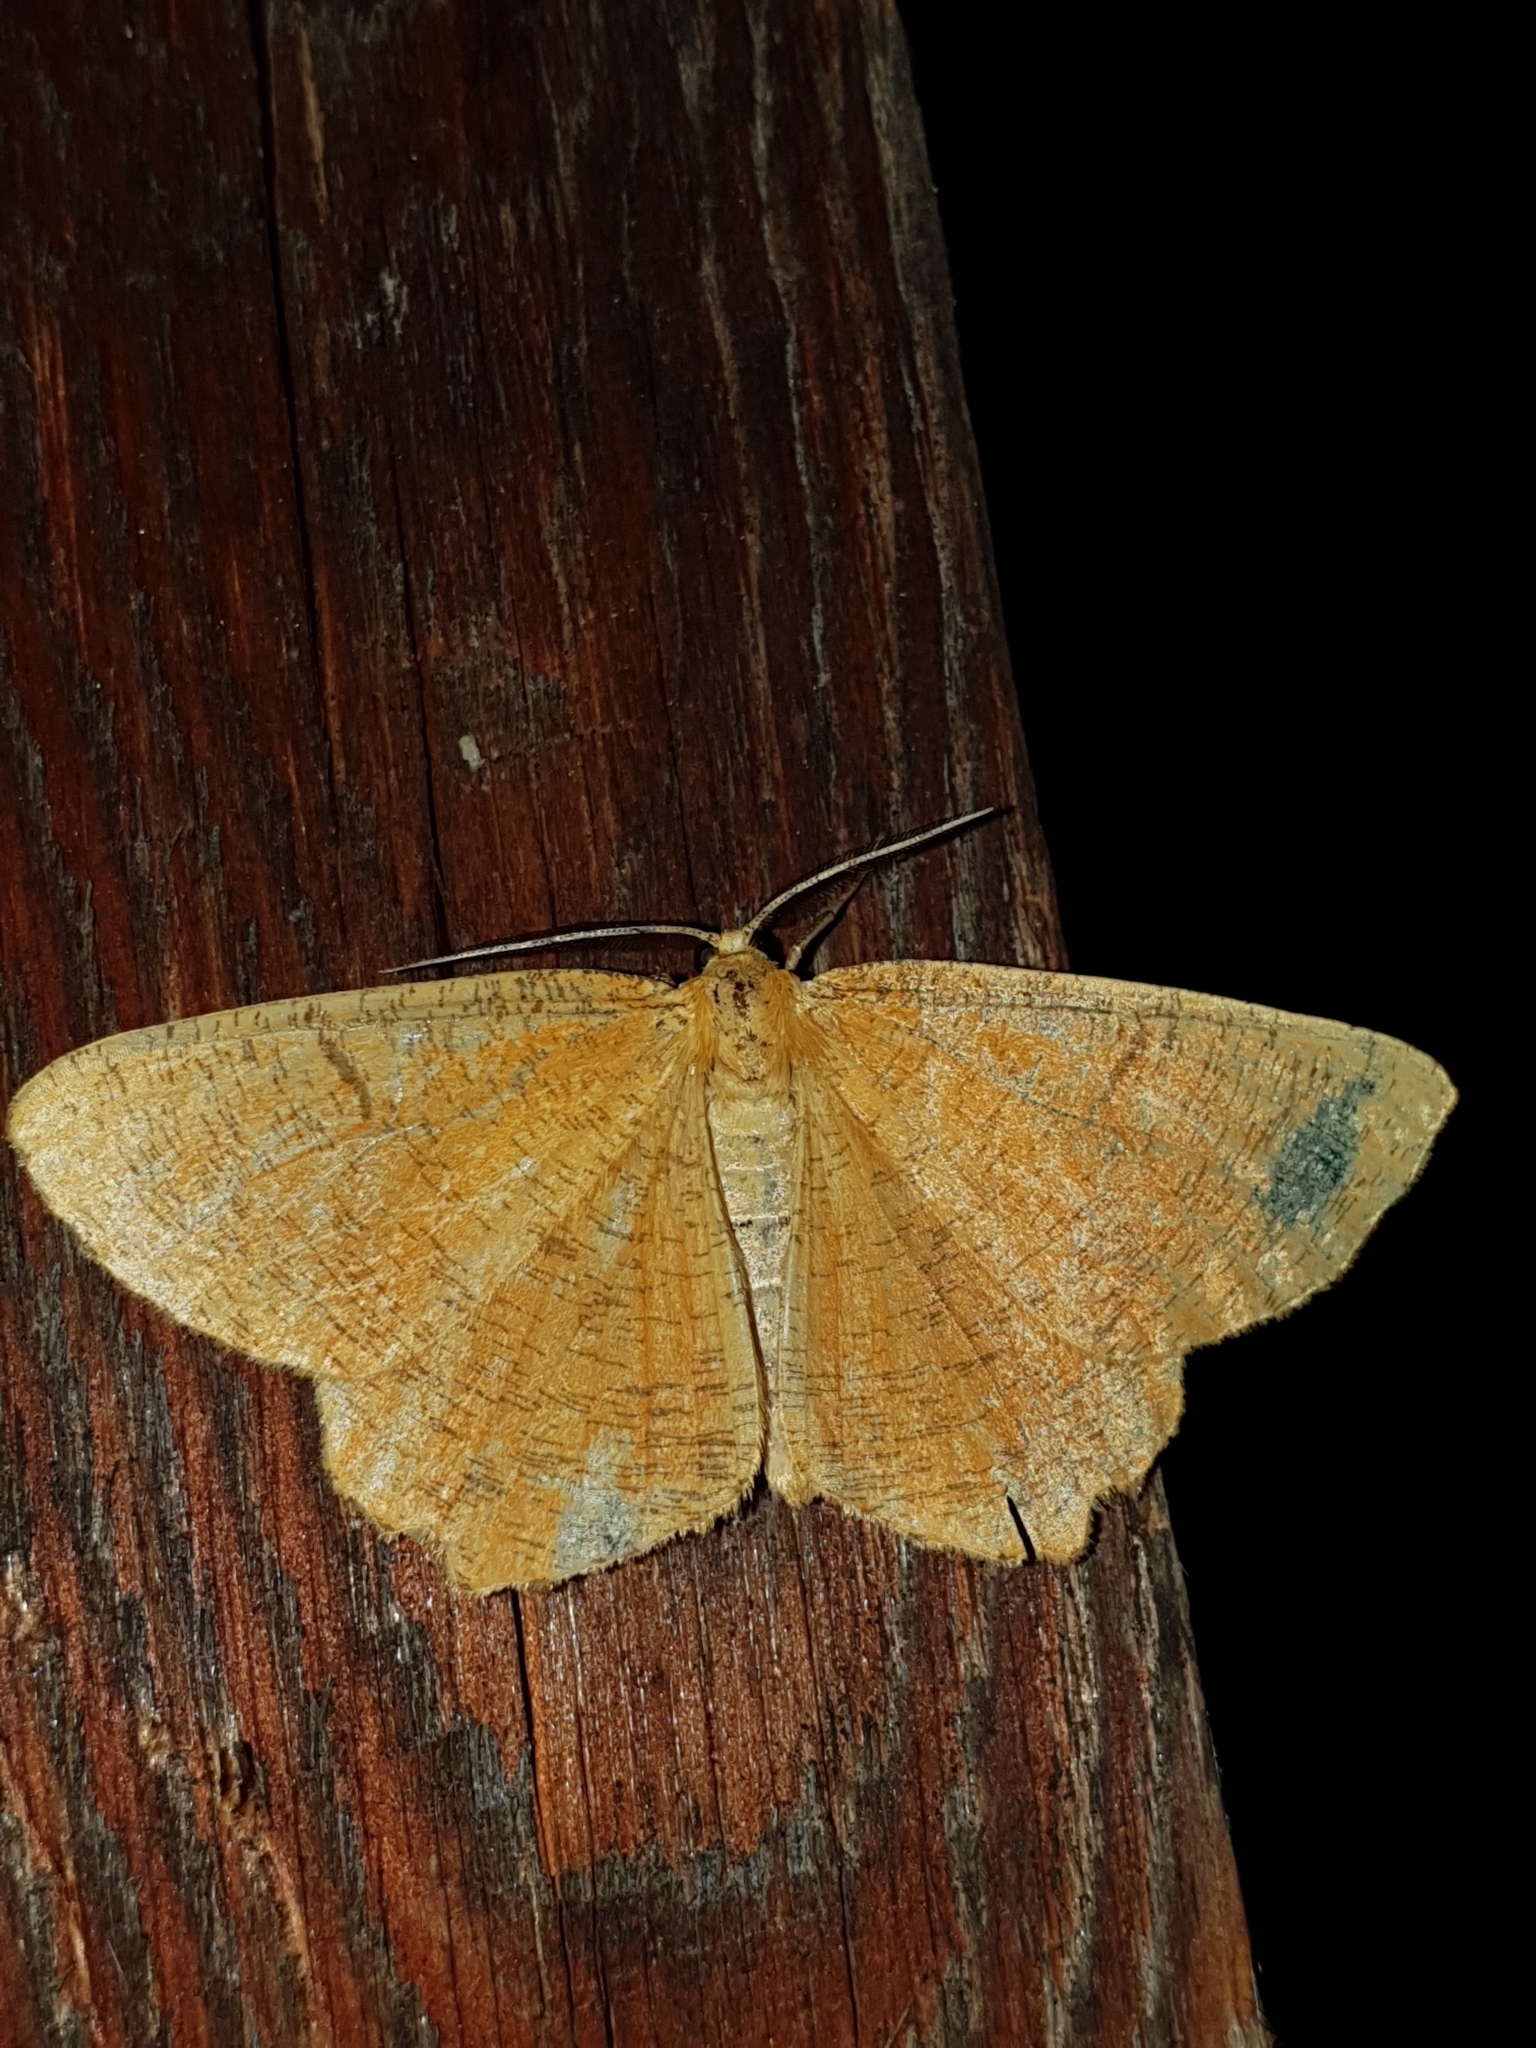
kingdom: Animalia
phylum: Arthropoda
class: Insecta
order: Lepidoptera
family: Geometridae
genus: Angerona
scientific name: Angerona prunaria
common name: Orange moth
